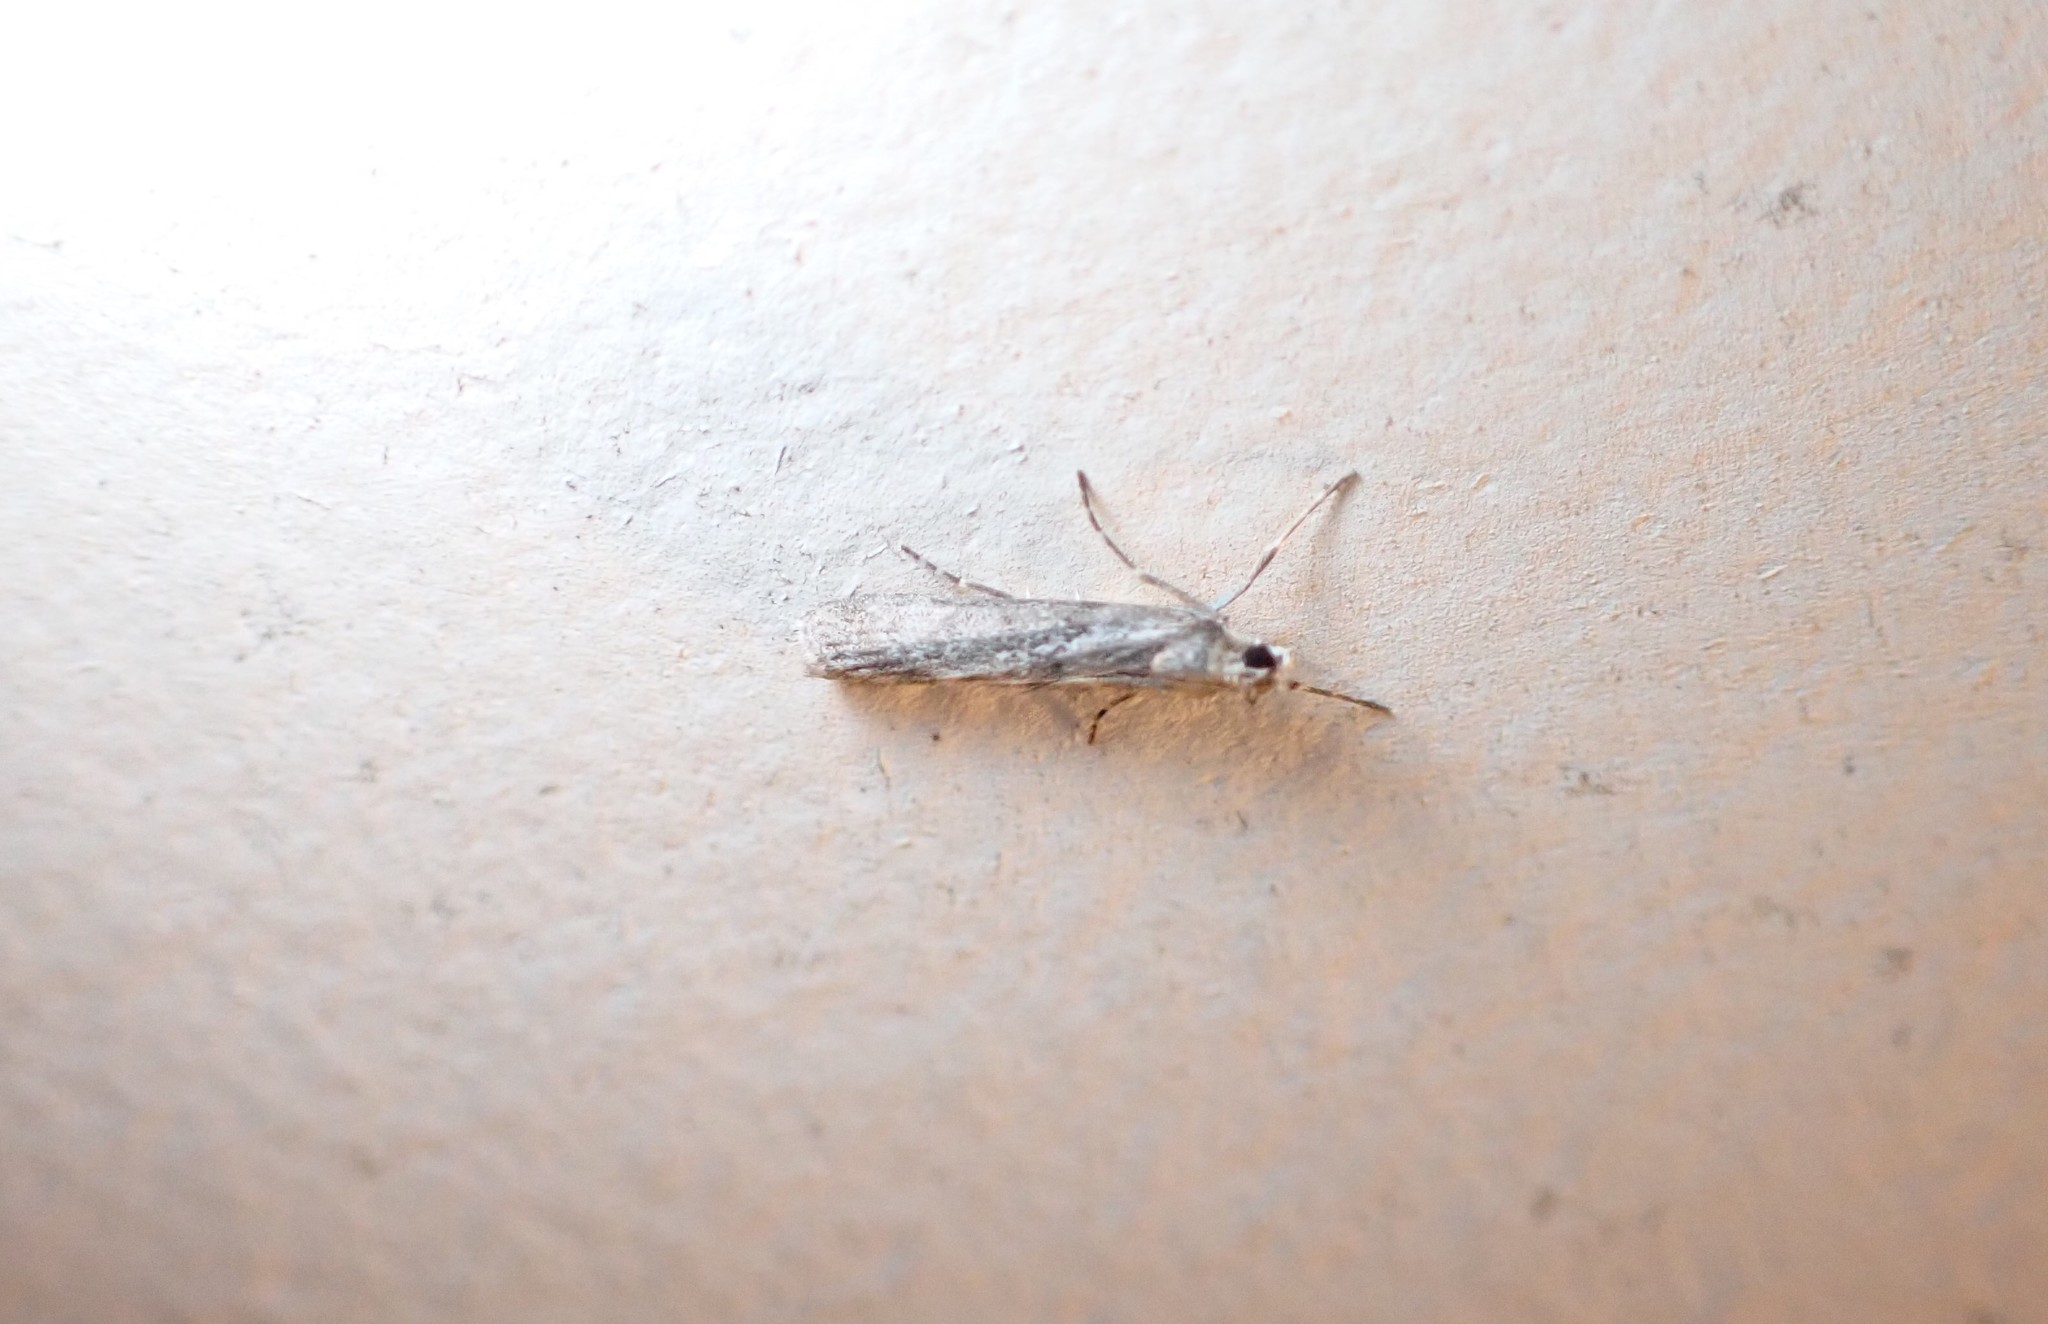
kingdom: Animalia
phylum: Arthropoda
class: Insecta
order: Lepidoptera
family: Crambidae
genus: Eudonia
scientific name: Eudonia leptalea
